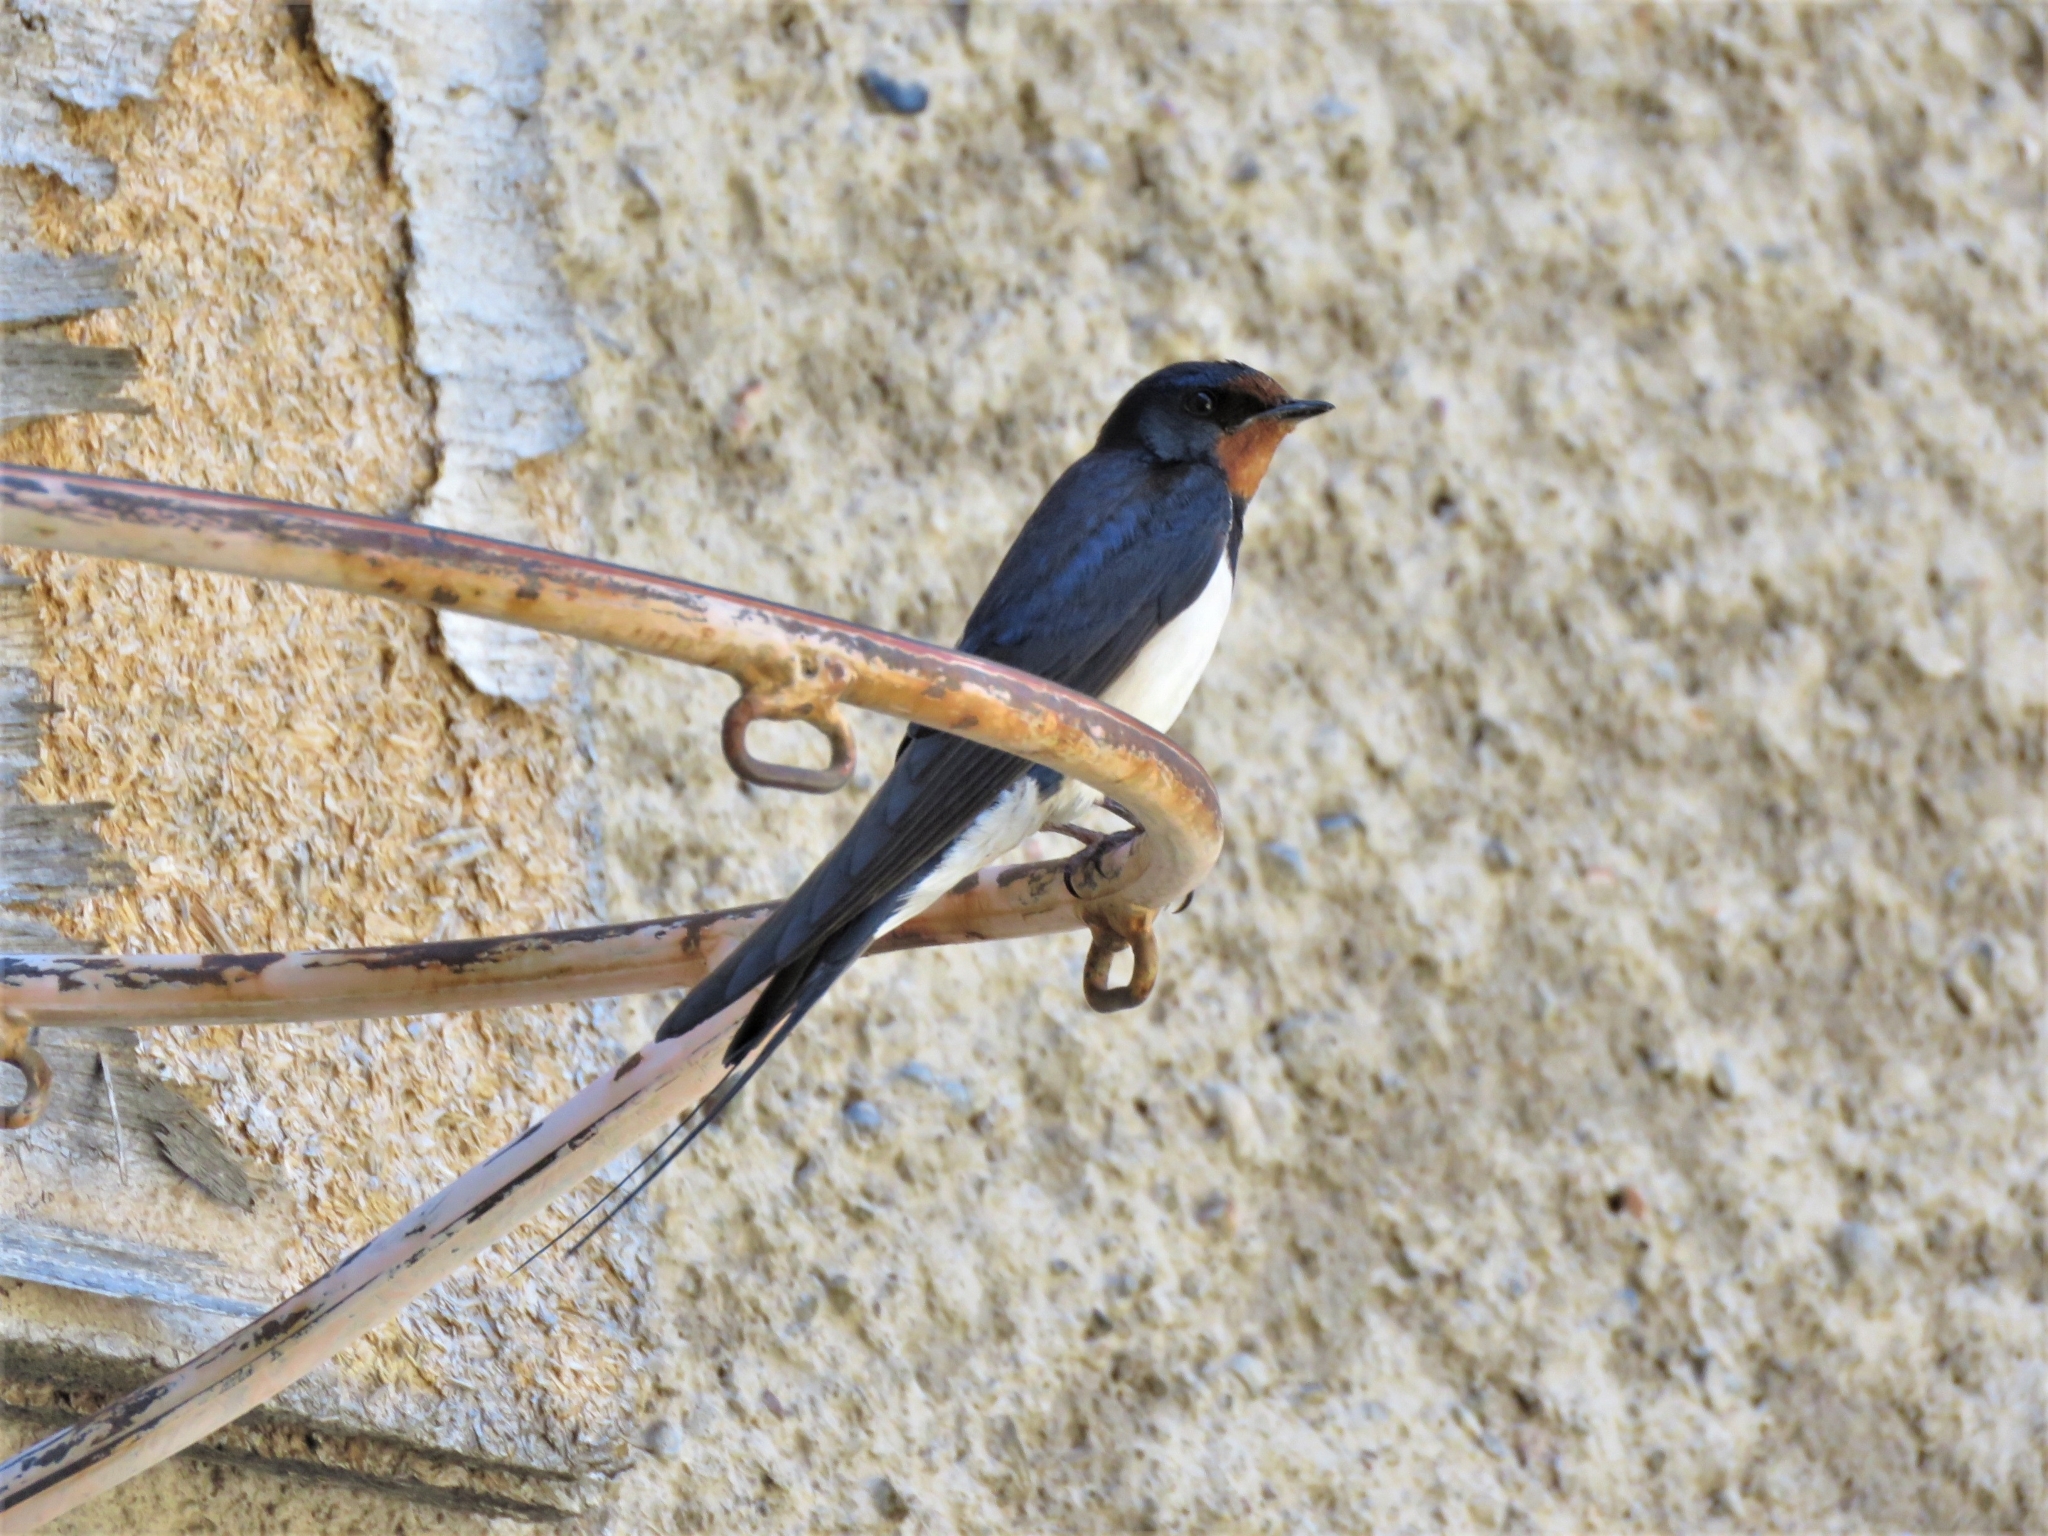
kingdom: Animalia
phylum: Chordata
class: Aves
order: Passeriformes
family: Hirundinidae
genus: Hirundo
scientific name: Hirundo rustica
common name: Barn swallow
